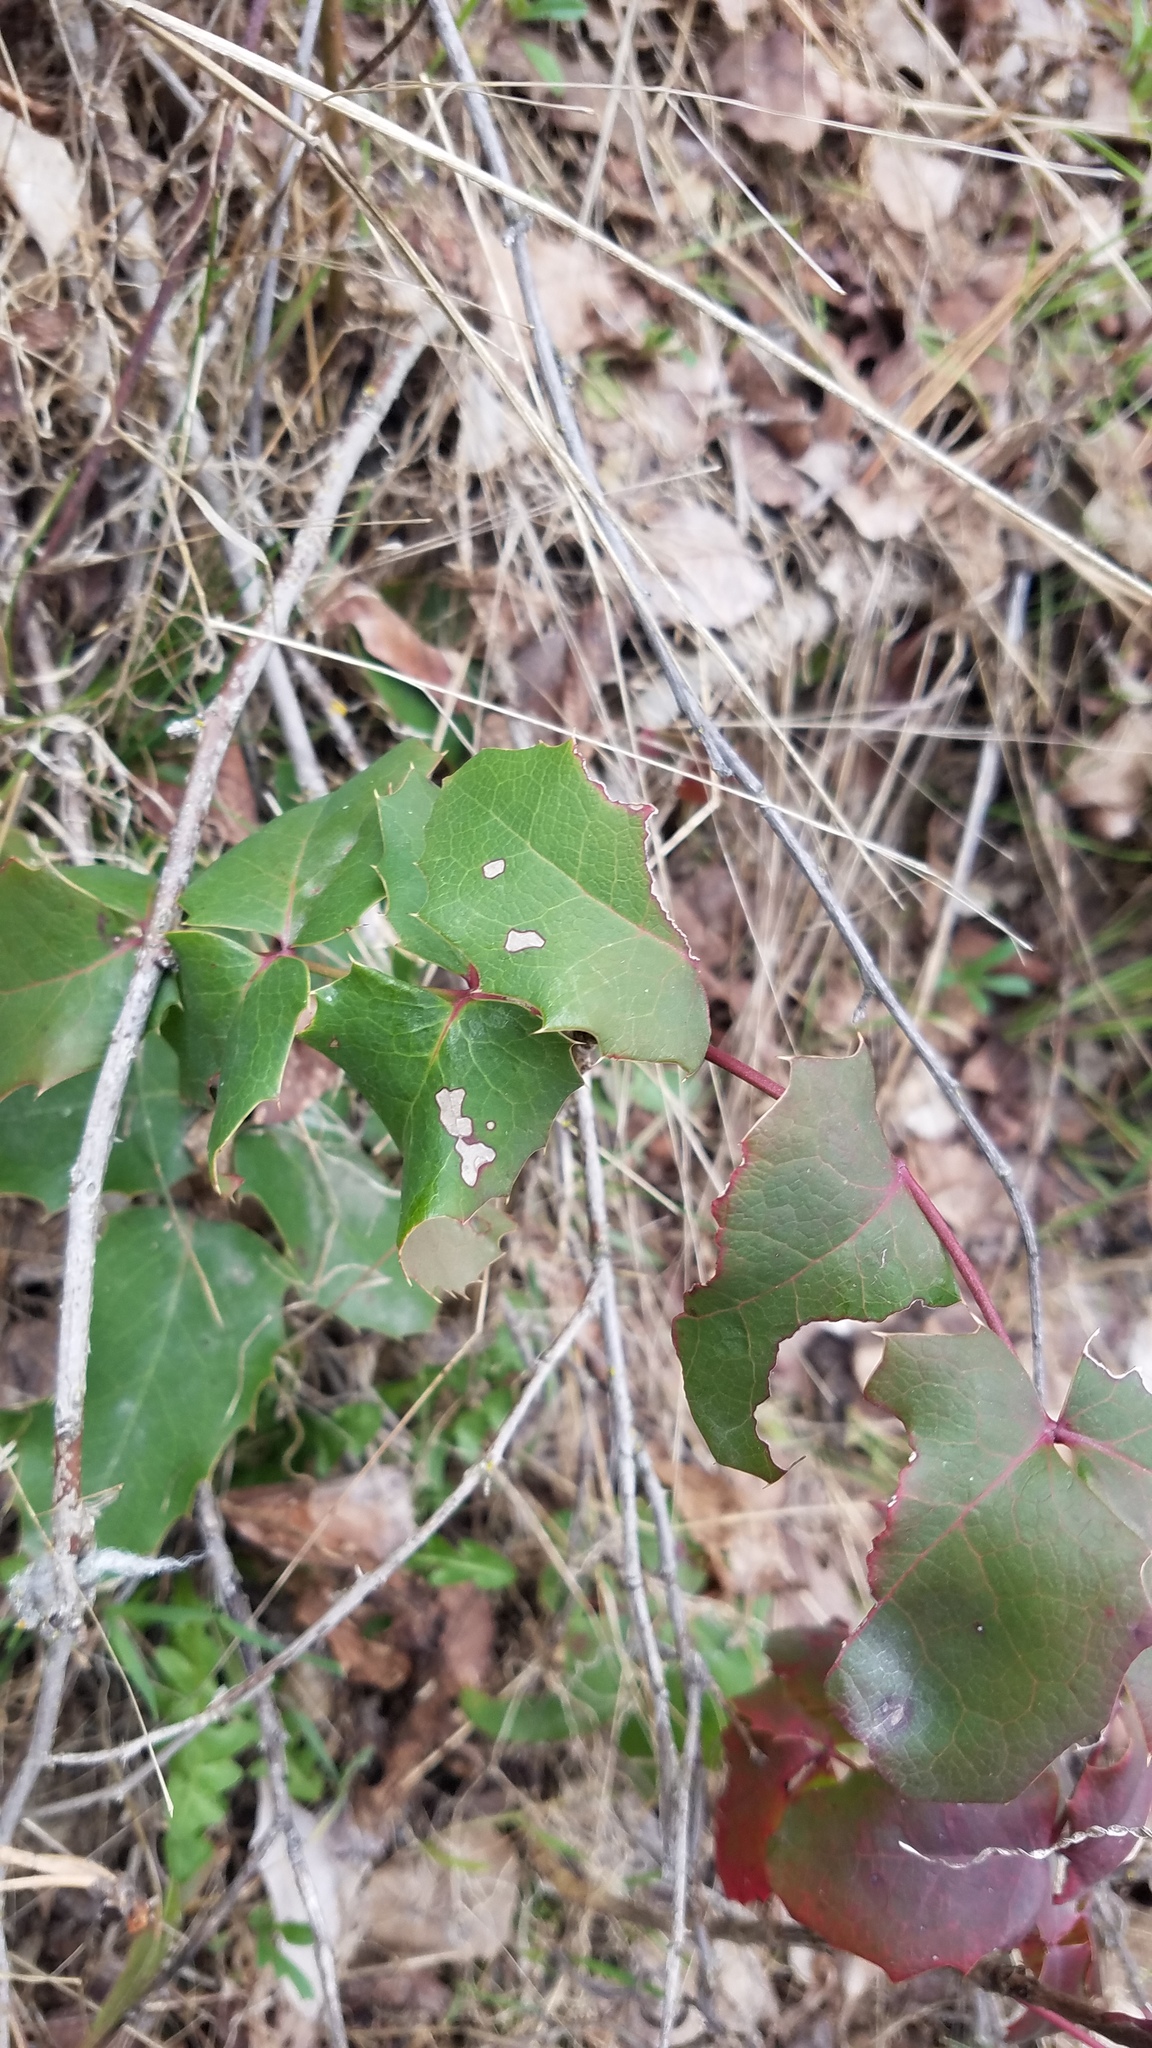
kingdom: Plantae
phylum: Tracheophyta
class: Magnoliopsida
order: Ranunculales
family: Berberidaceae
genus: Mahonia
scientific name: Mahonia aquifolium
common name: Oregon-grape
